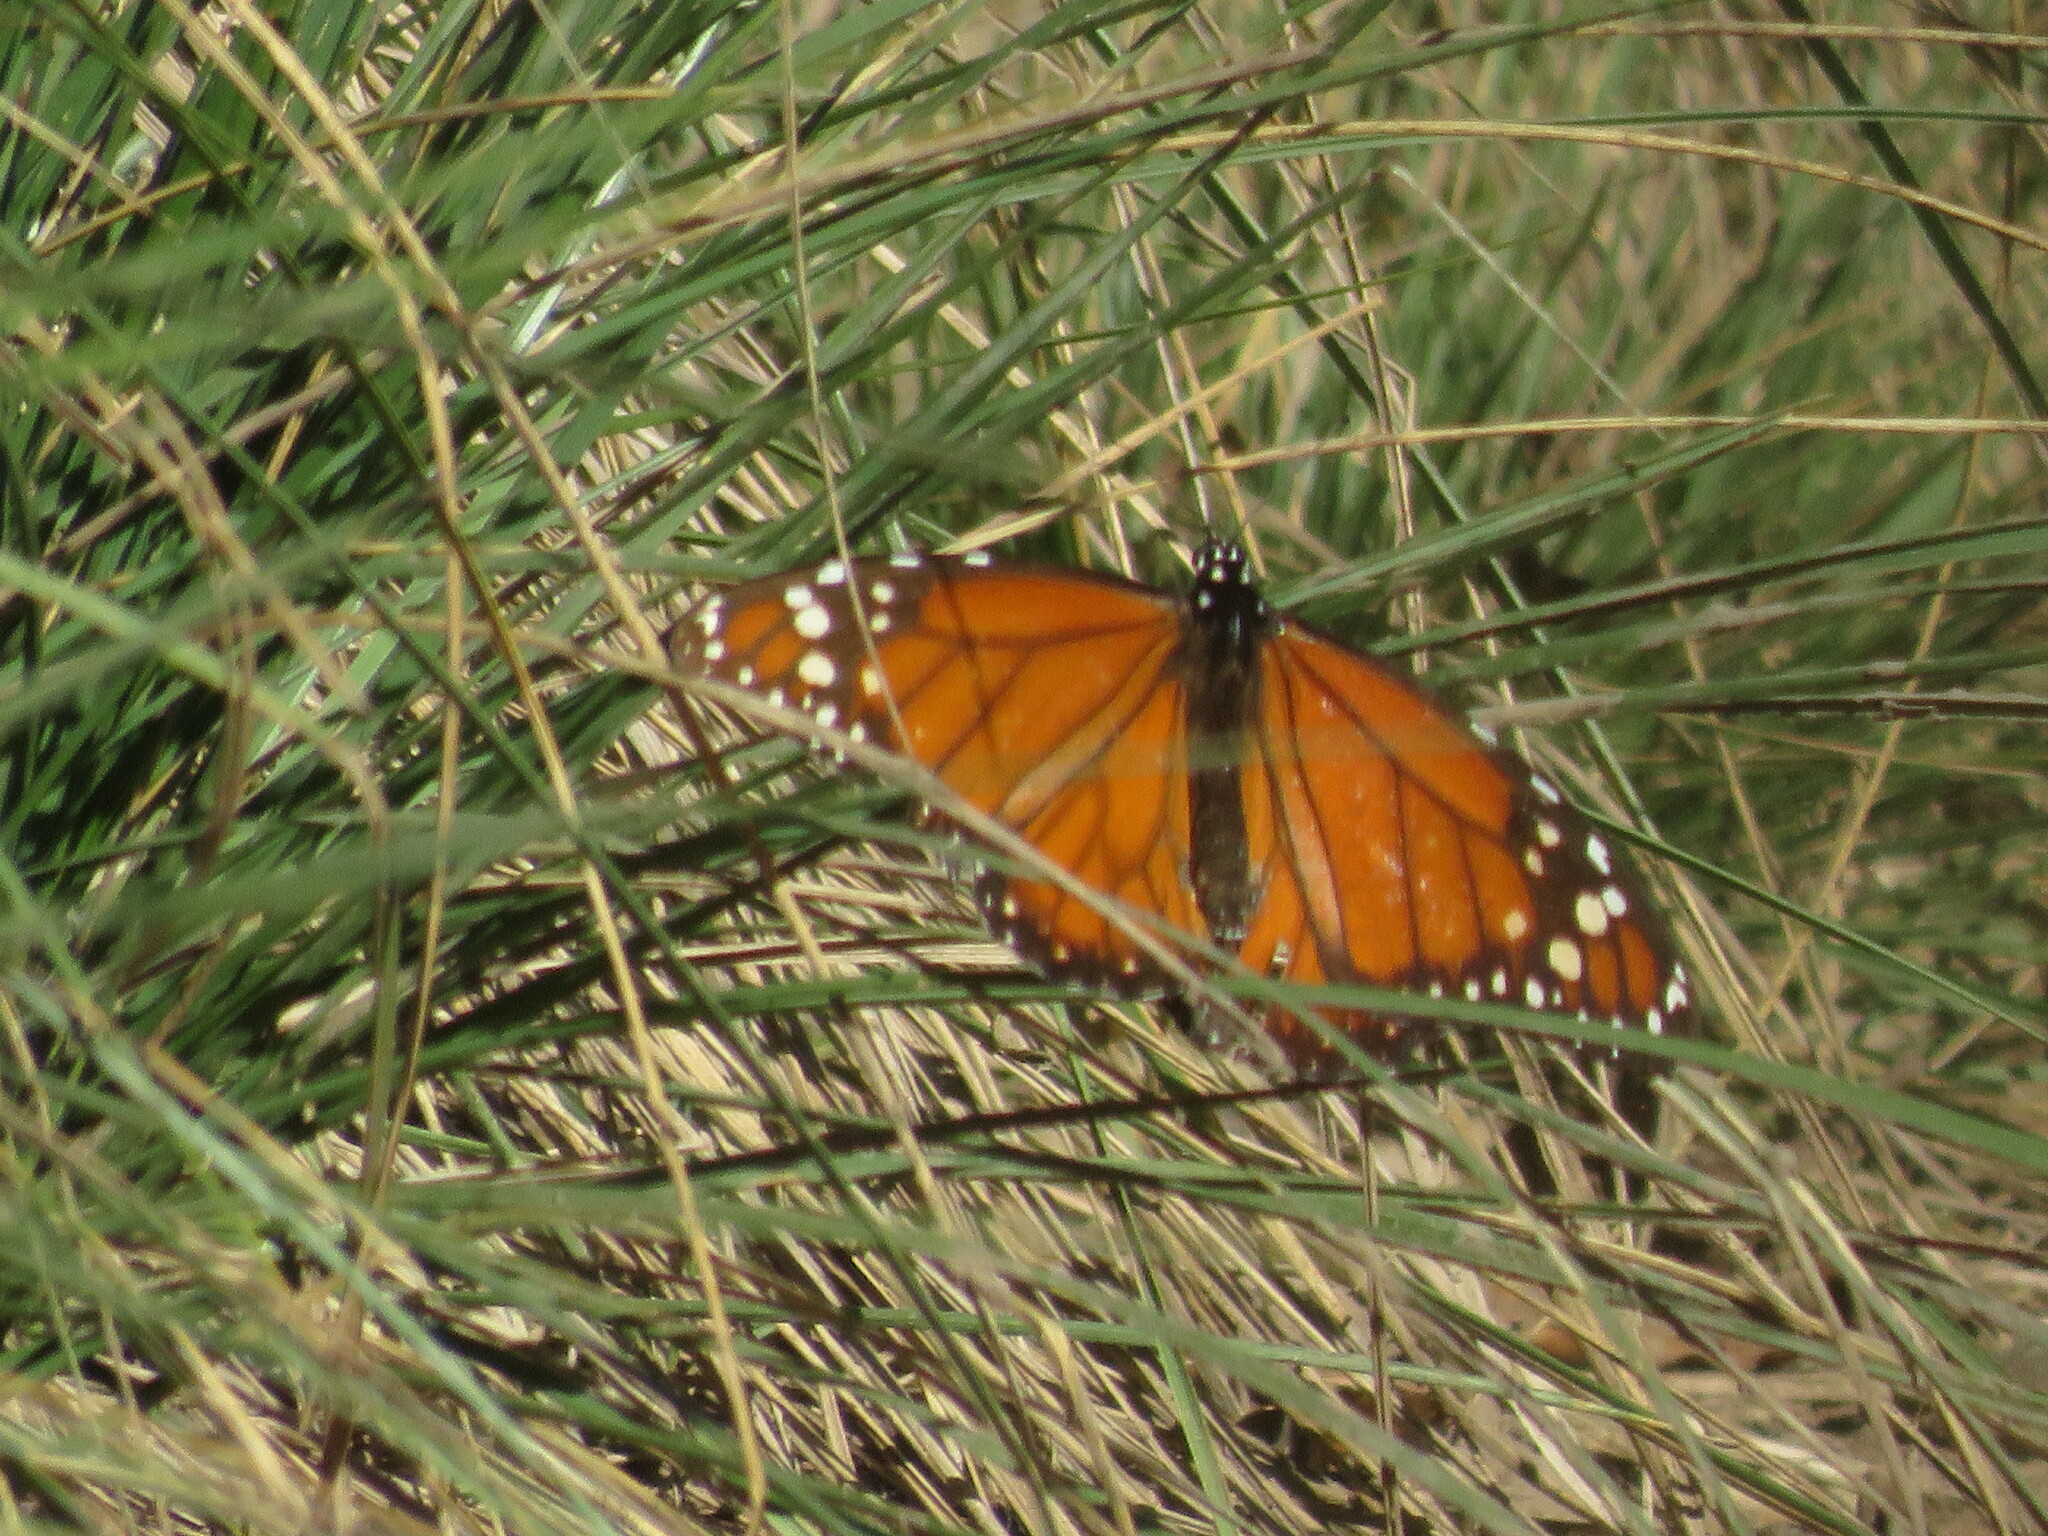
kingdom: Animalia
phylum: Arthropoda
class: Insecta
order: Lepidoptera
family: Nymphalidae
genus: Danaus
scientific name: Danaus erippus
